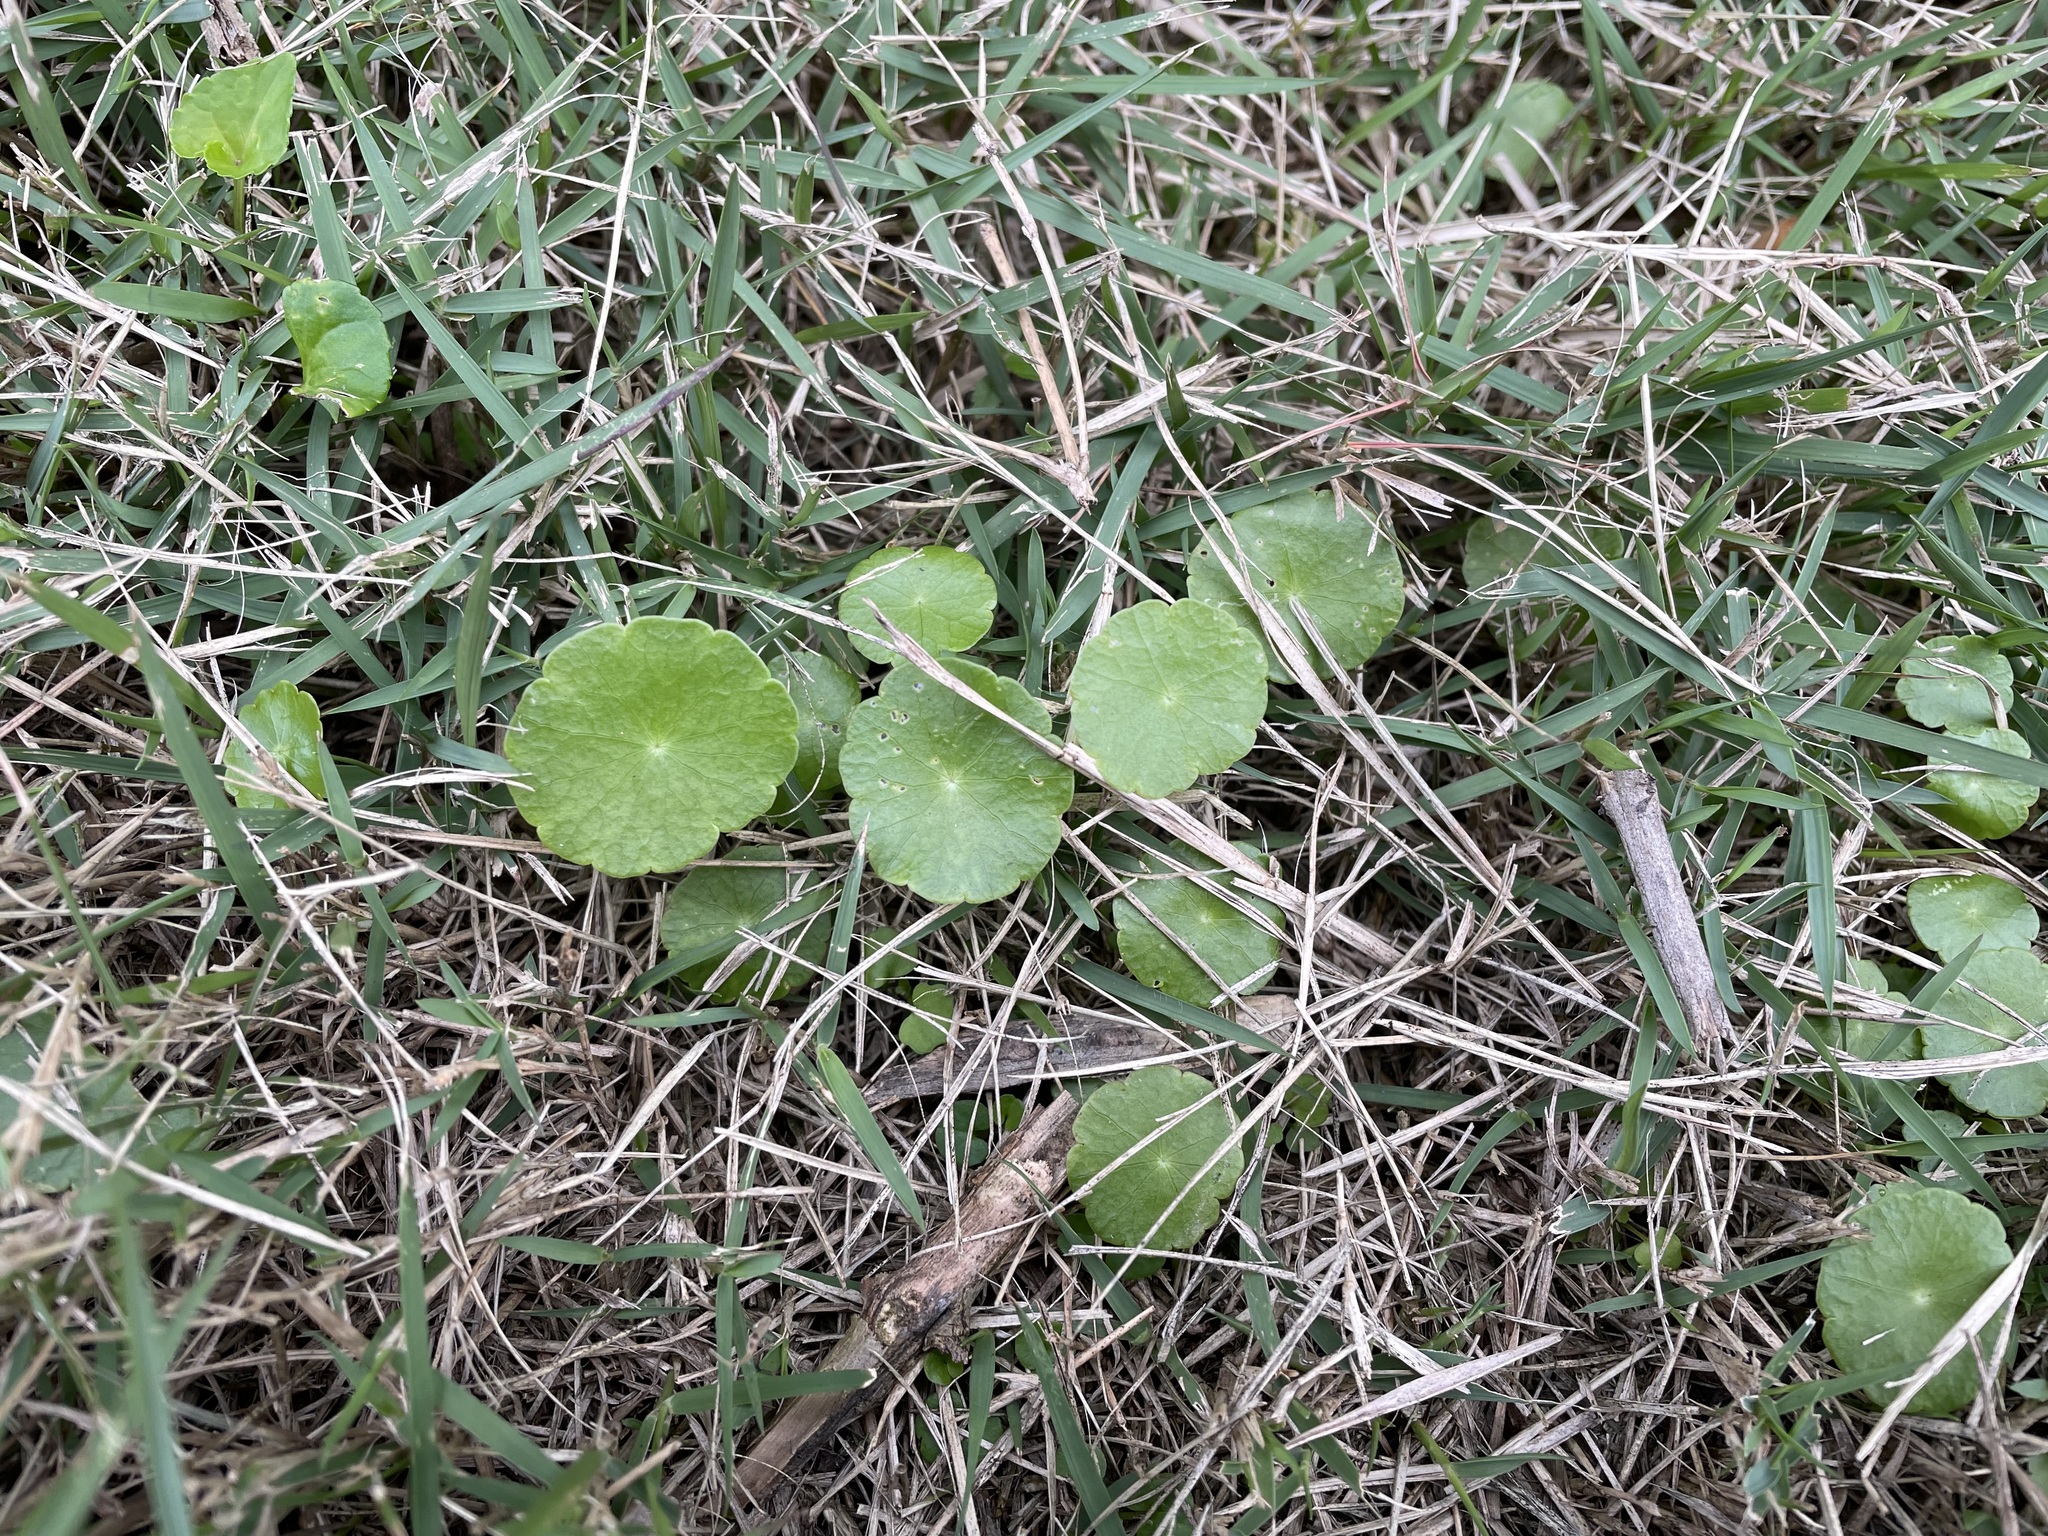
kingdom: Plantae
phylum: Tracheophyta
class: Magnoliopsida
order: Apiales
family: Araliaceae
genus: Hydrocotyle
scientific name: Hydrocotyle verticillata
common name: Whorled marshpennywort
